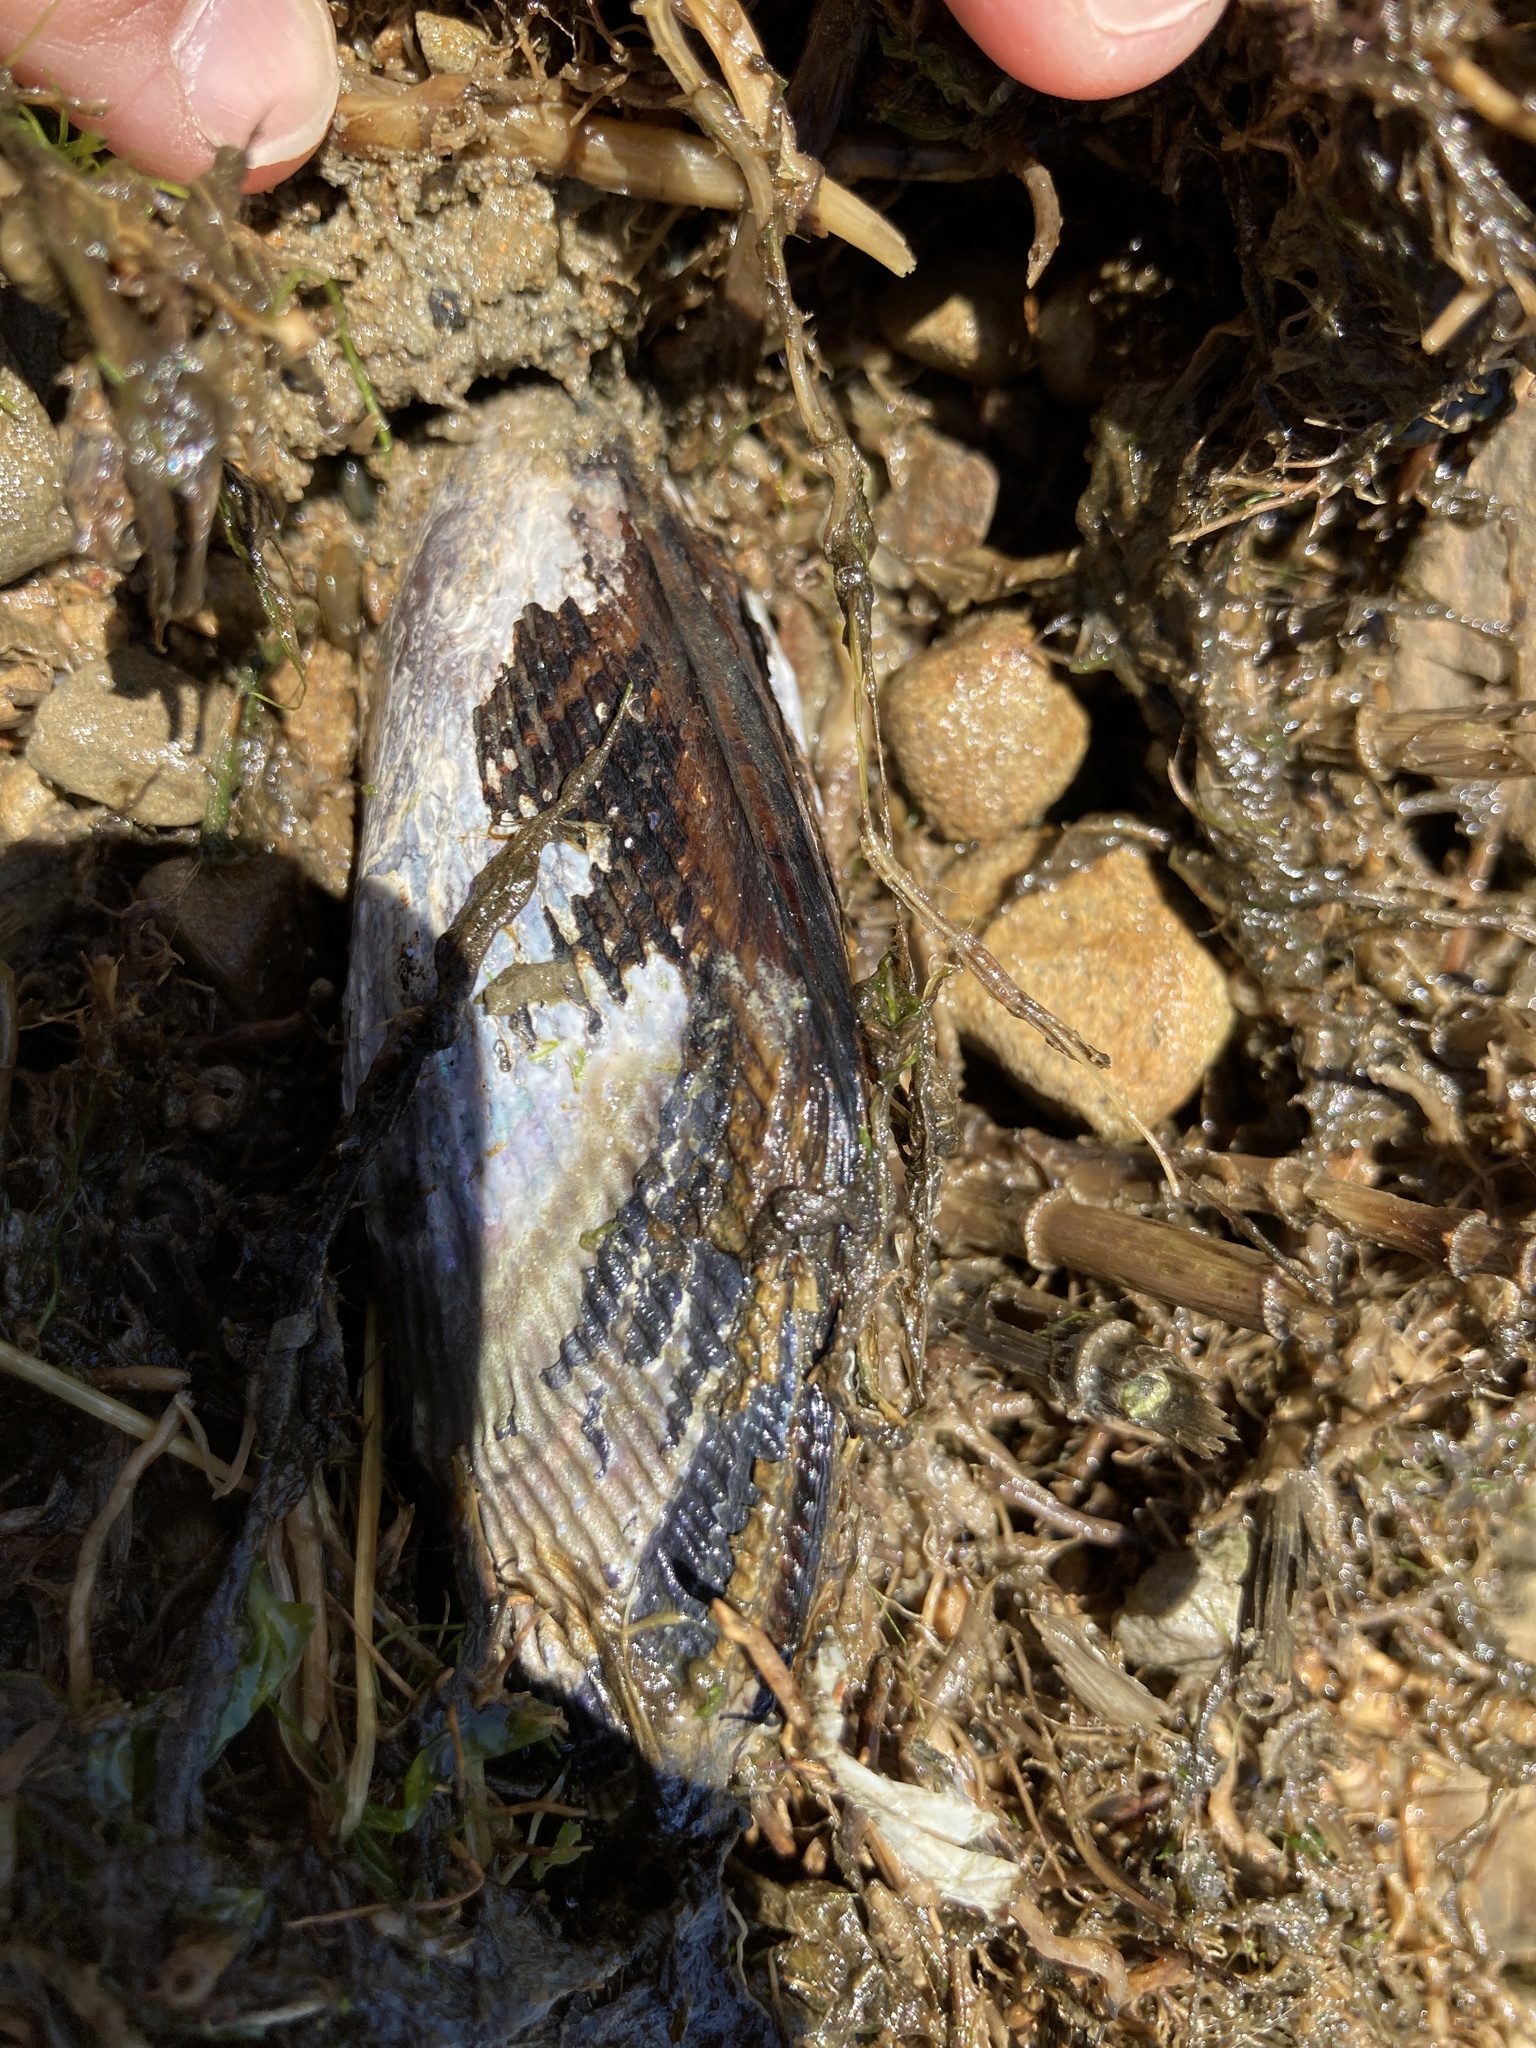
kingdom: Animalia
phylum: Mollusca
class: Bivalvia
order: Mytilida
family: Mytilidae
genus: Geukensia
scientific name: Geukensia demissa
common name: Ribbed mussel
